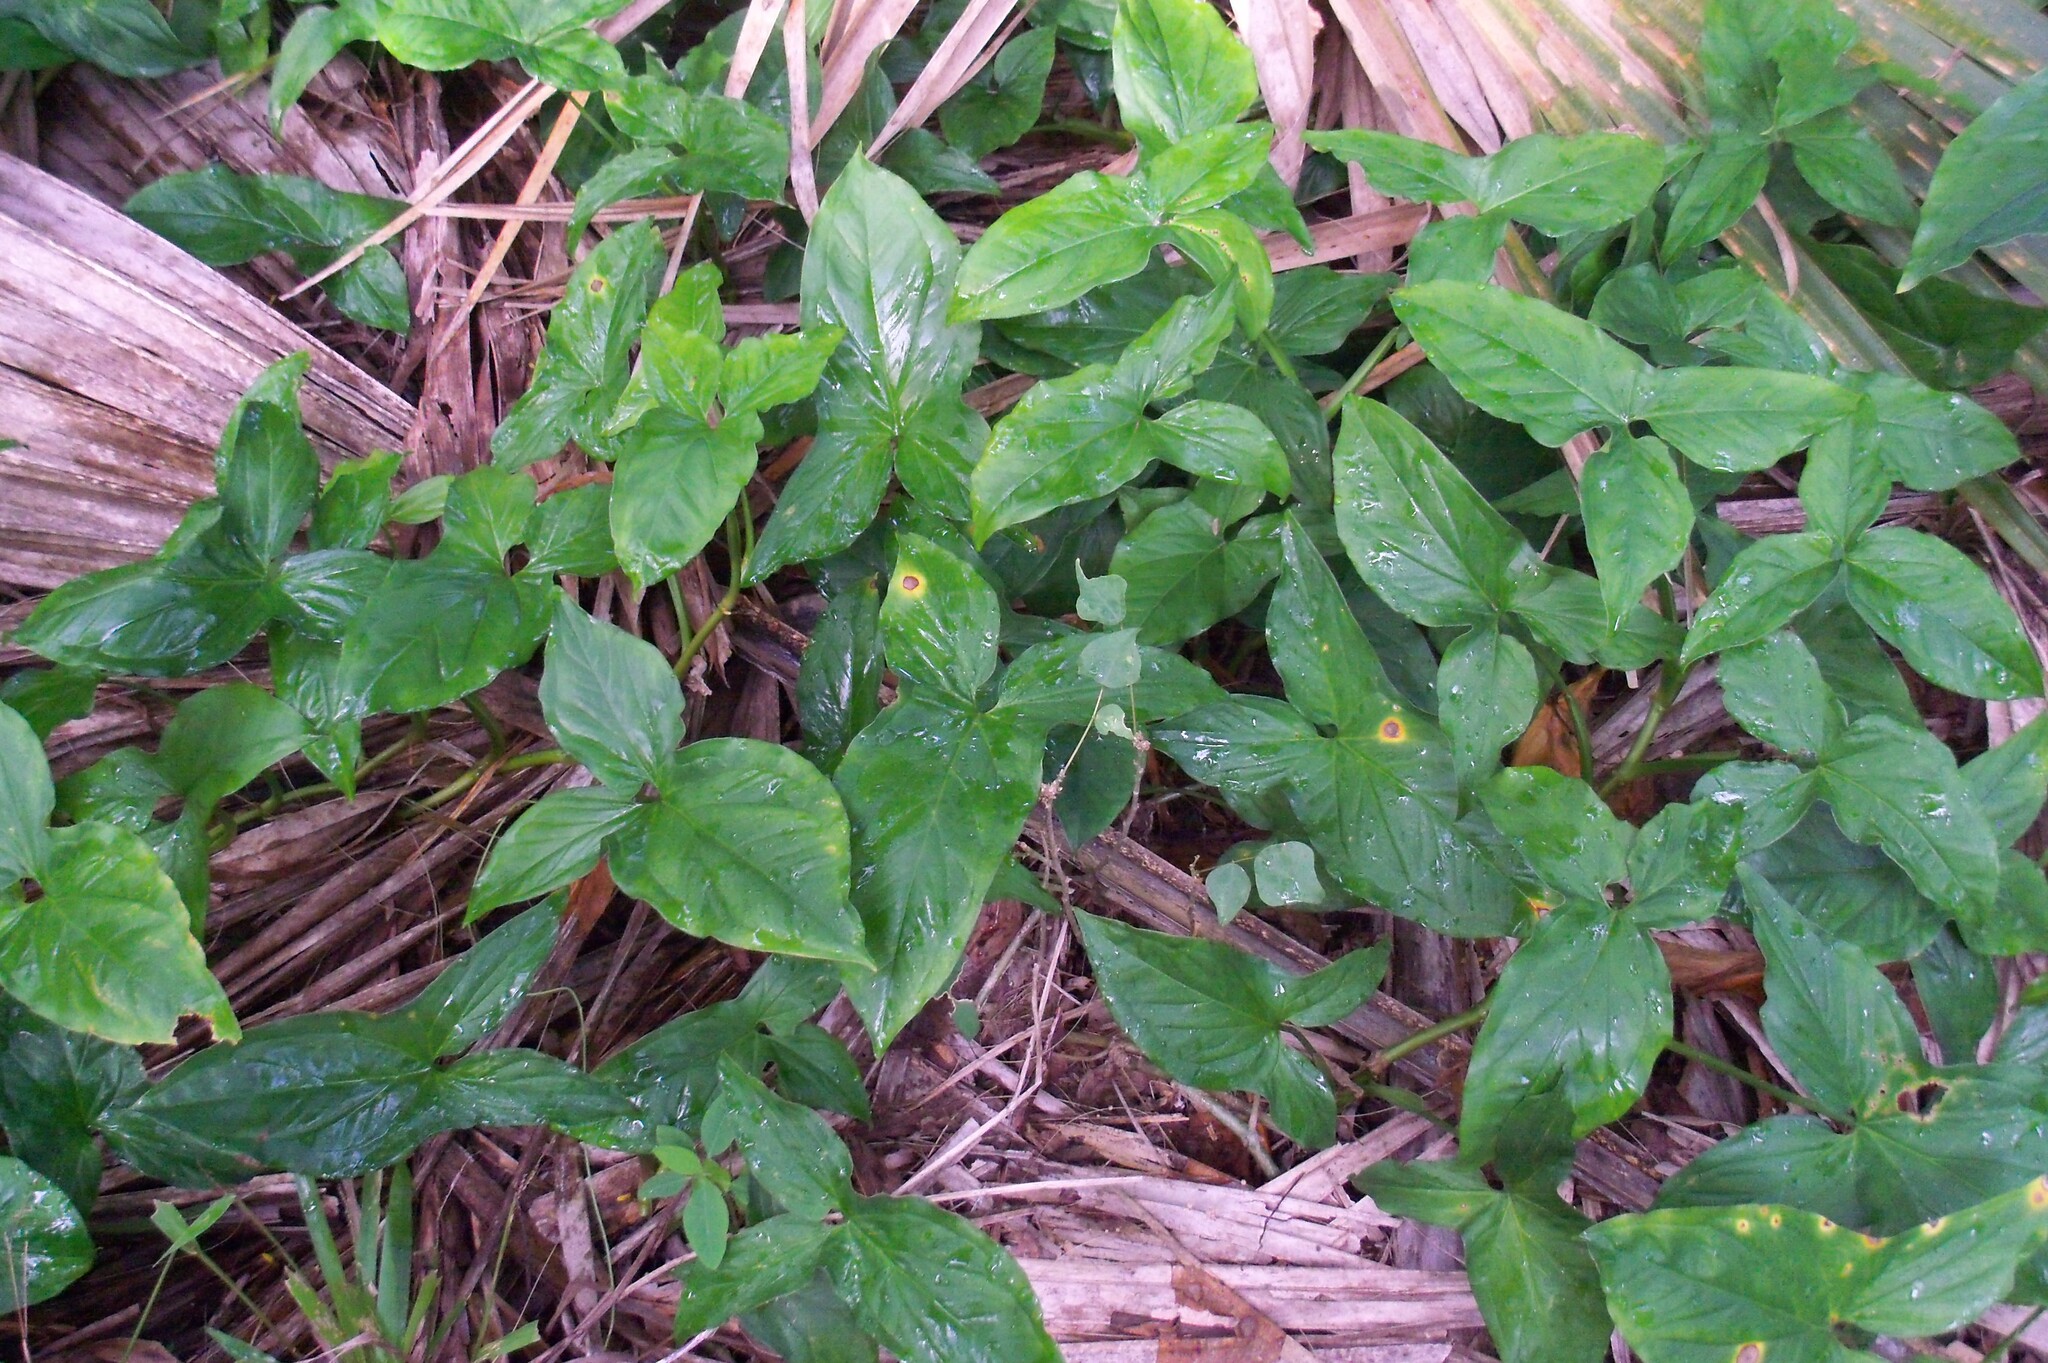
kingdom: Plantae
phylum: Tracheophyta
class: Liliopsida
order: Alismatales
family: Araceae
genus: Syngonium
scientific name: Syngonium podophyllum
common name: American evergreen
